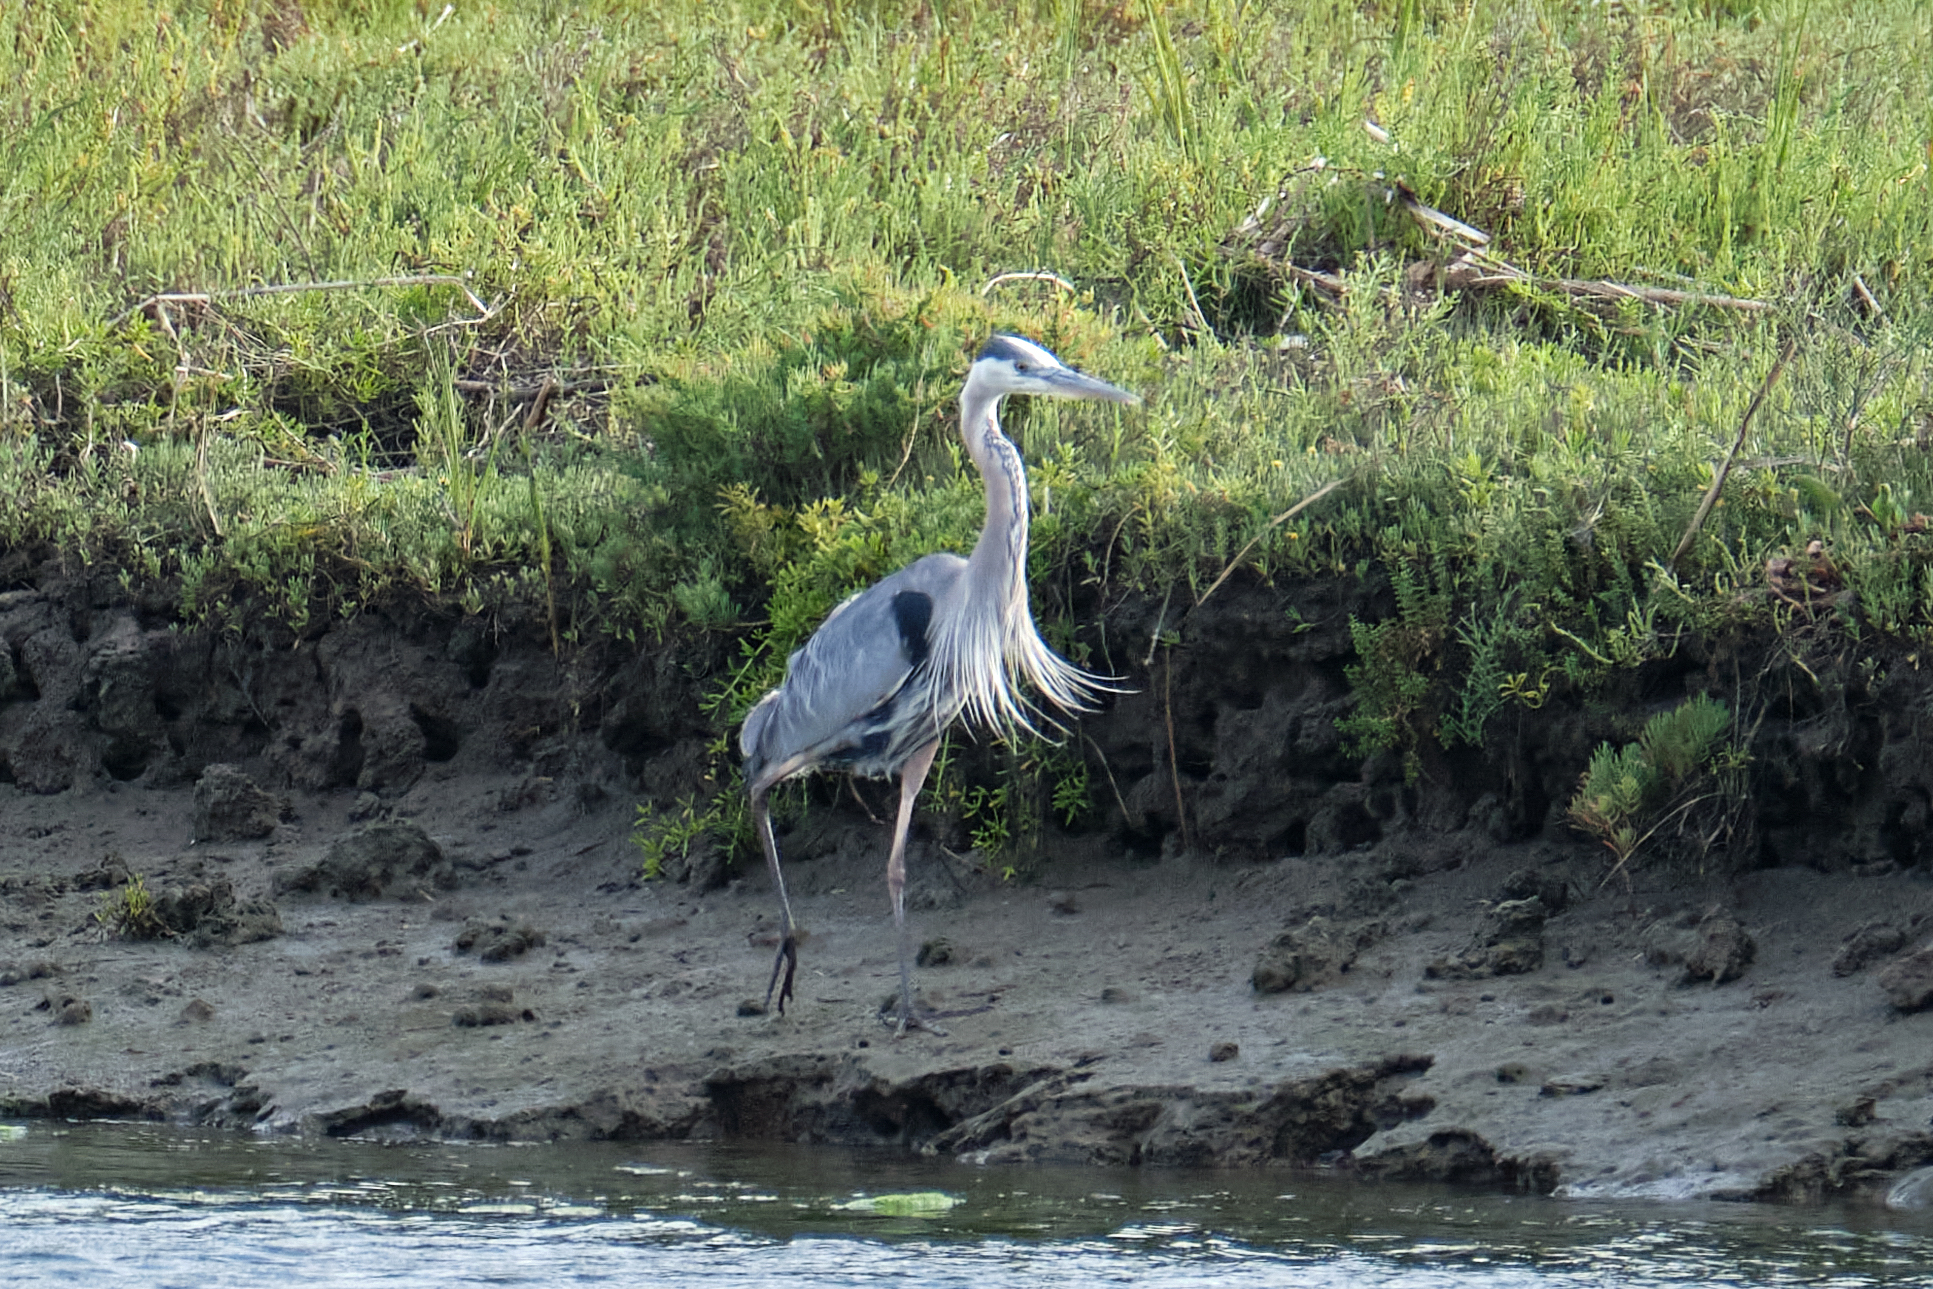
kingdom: Animalia
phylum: Chordata
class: Aves
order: Pelecaniformes
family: Ardeidae
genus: Ardea
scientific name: Ardea herodias
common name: Great blue heron
